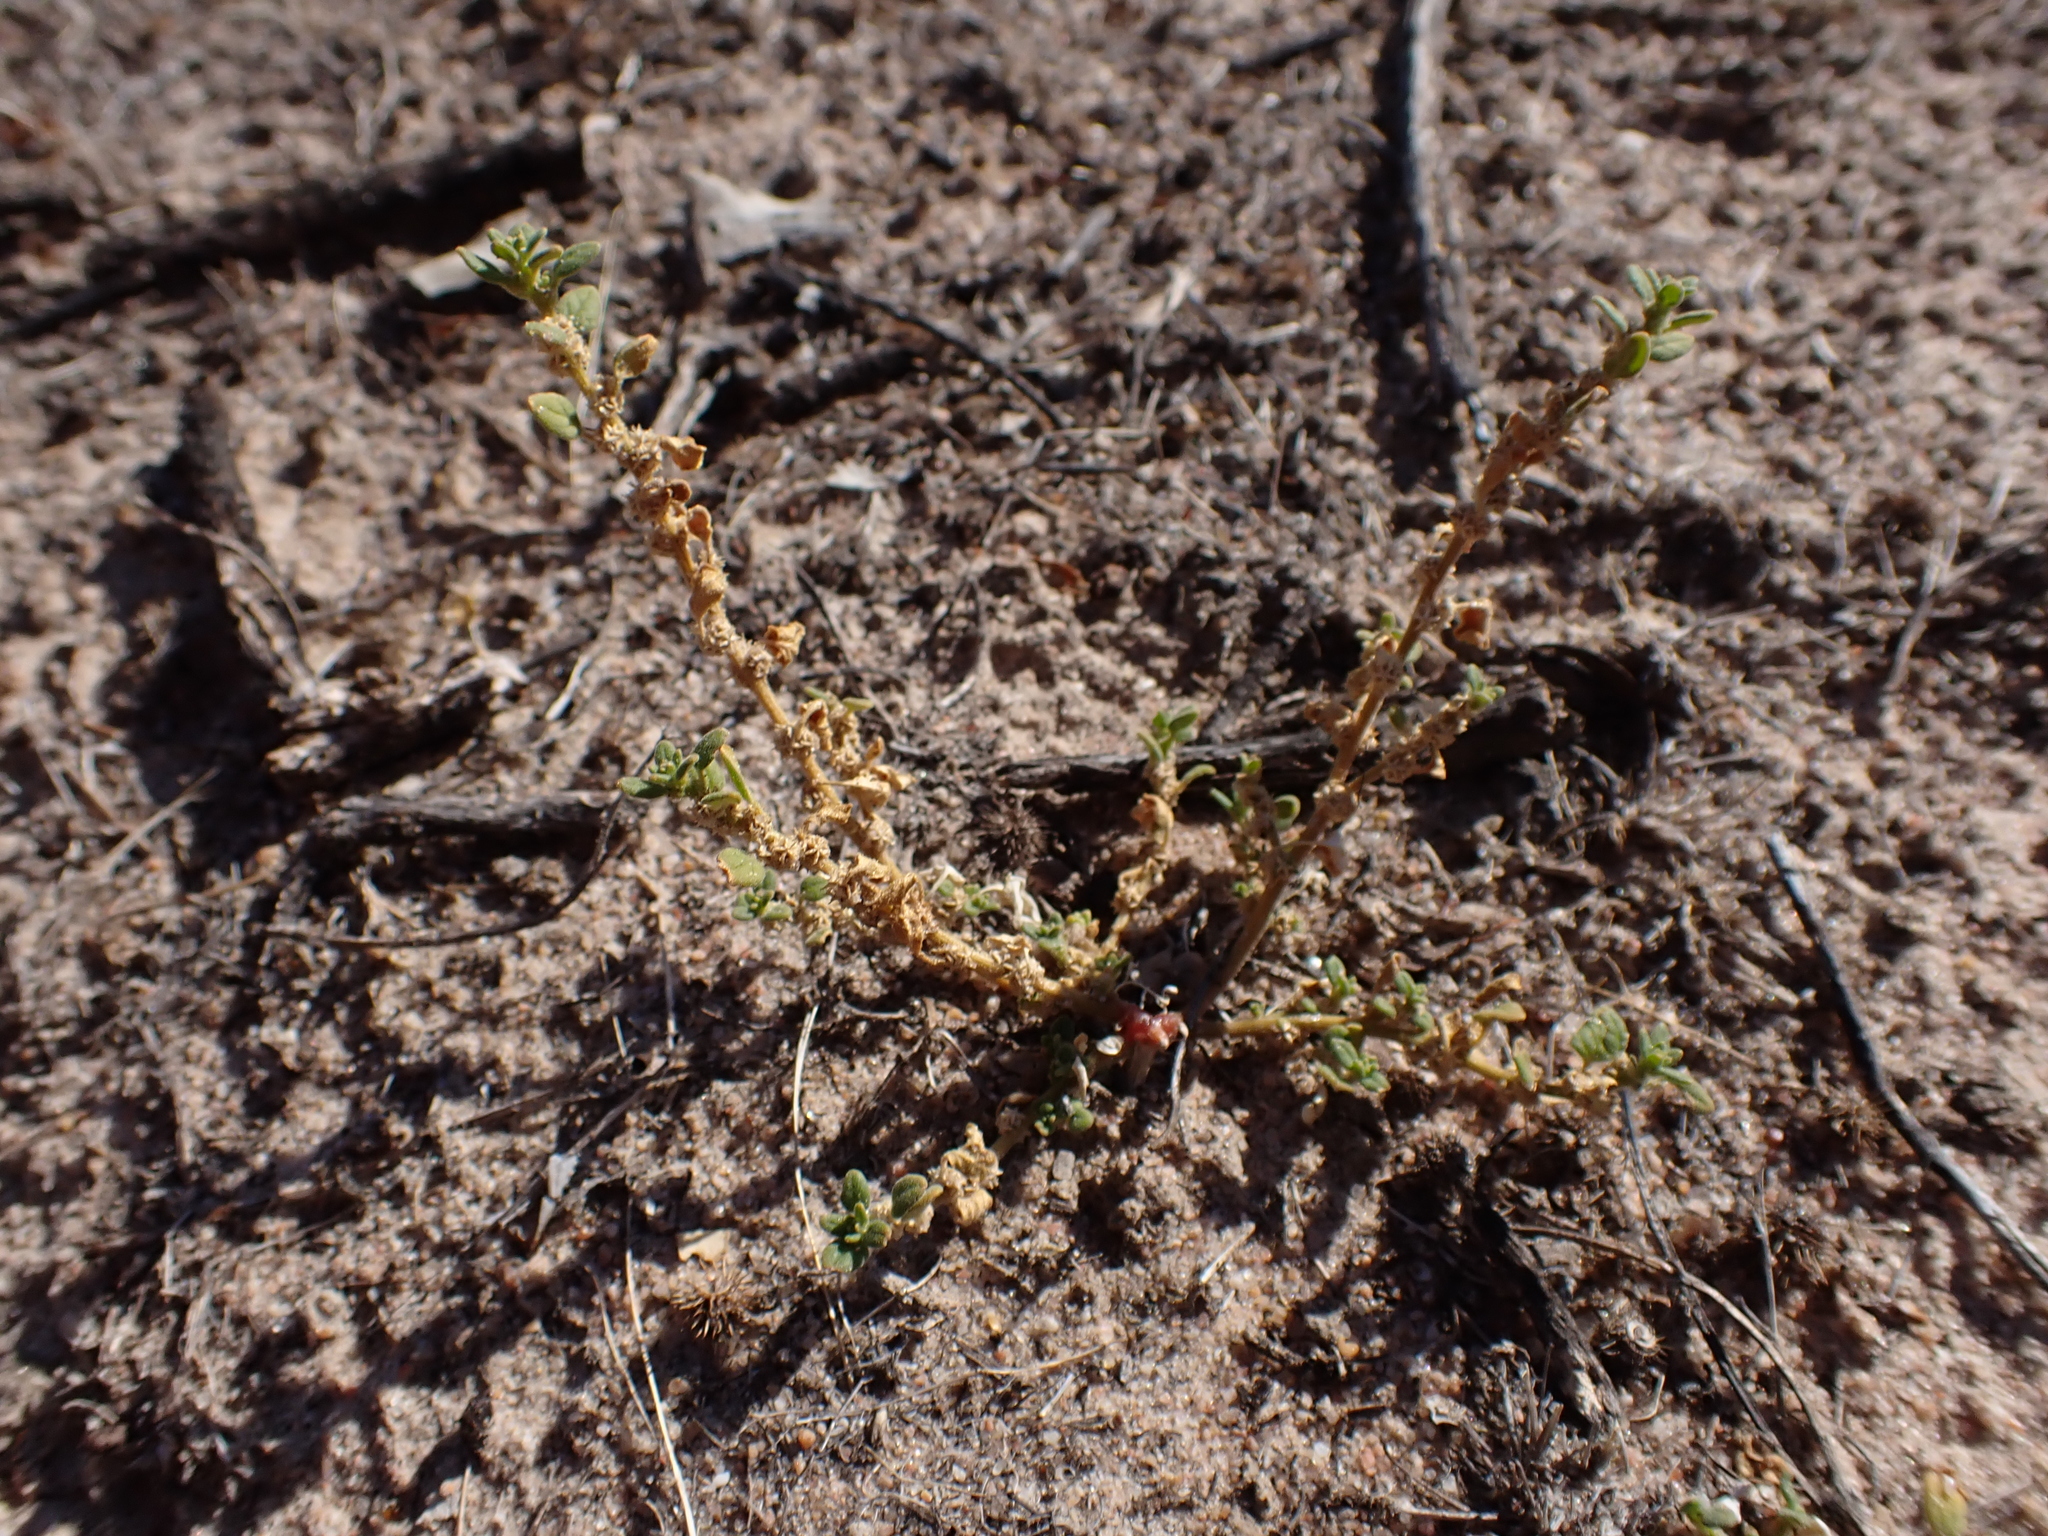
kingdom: Plantae
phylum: Tracheophyta
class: Magnoliopsida
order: Caryophyllales
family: Amaranthaceae
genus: Dysphania
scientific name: Dysphania cristata
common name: Crested goosefoot
